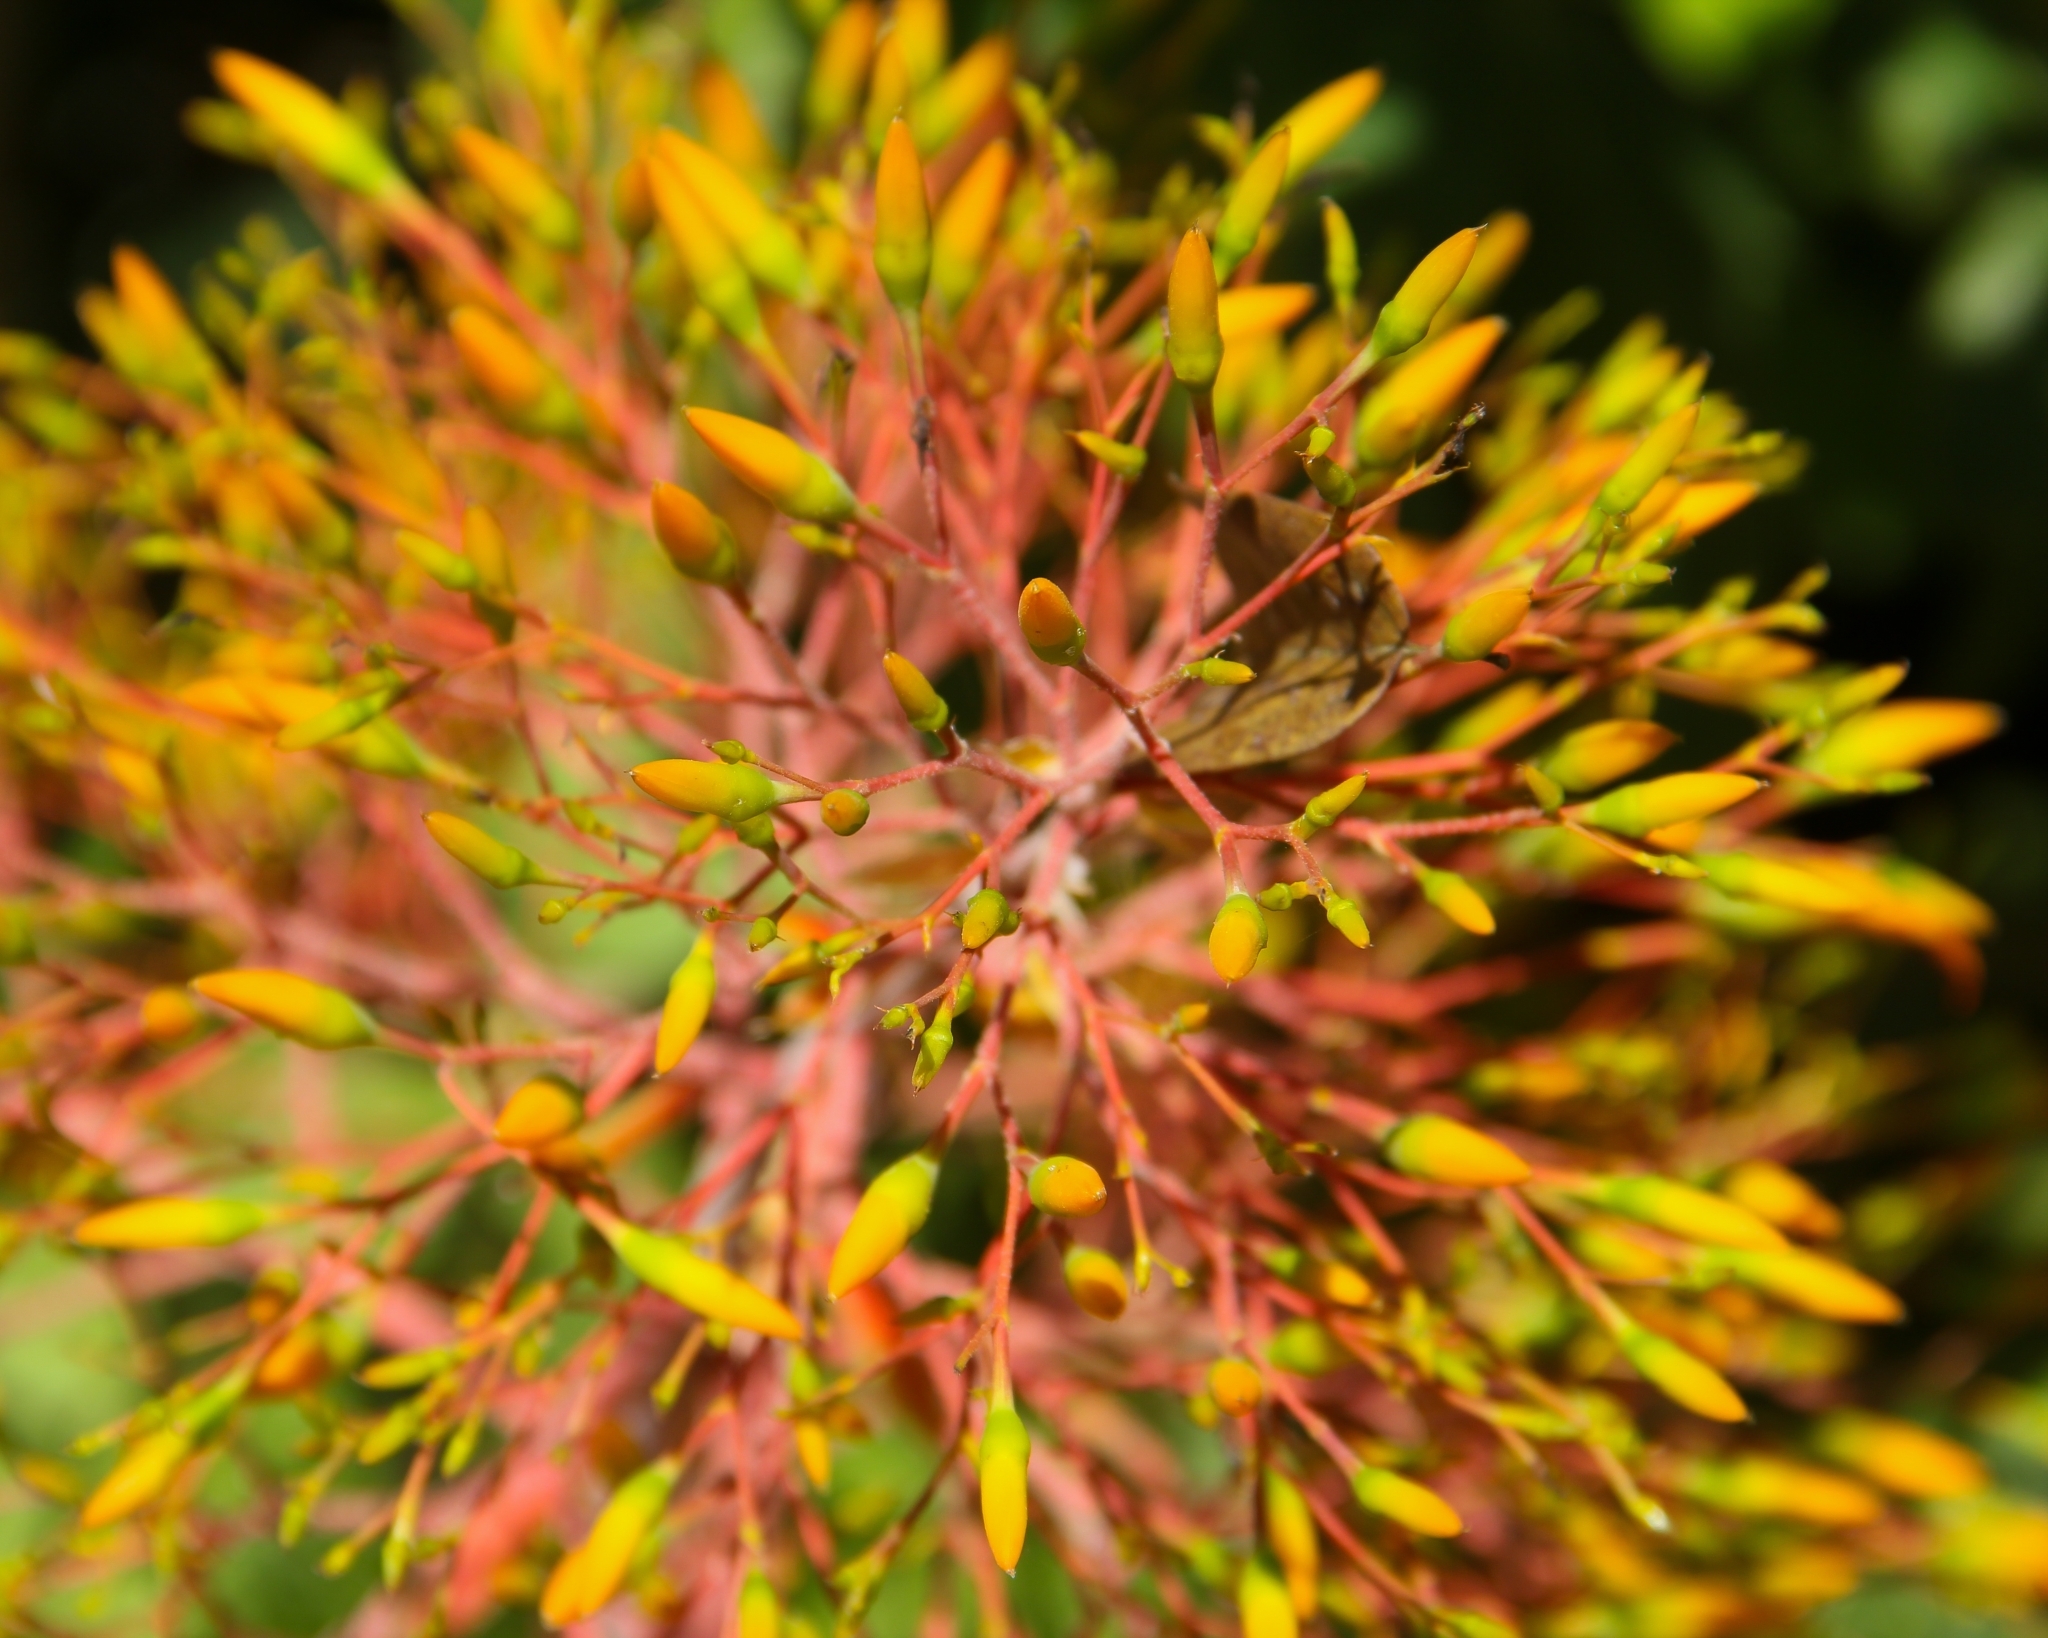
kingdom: Plantae
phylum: Tracheophyta
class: Liliopsida
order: Poales
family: Bromeliaceae
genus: Aechmea
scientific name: Aechmea leptantha
